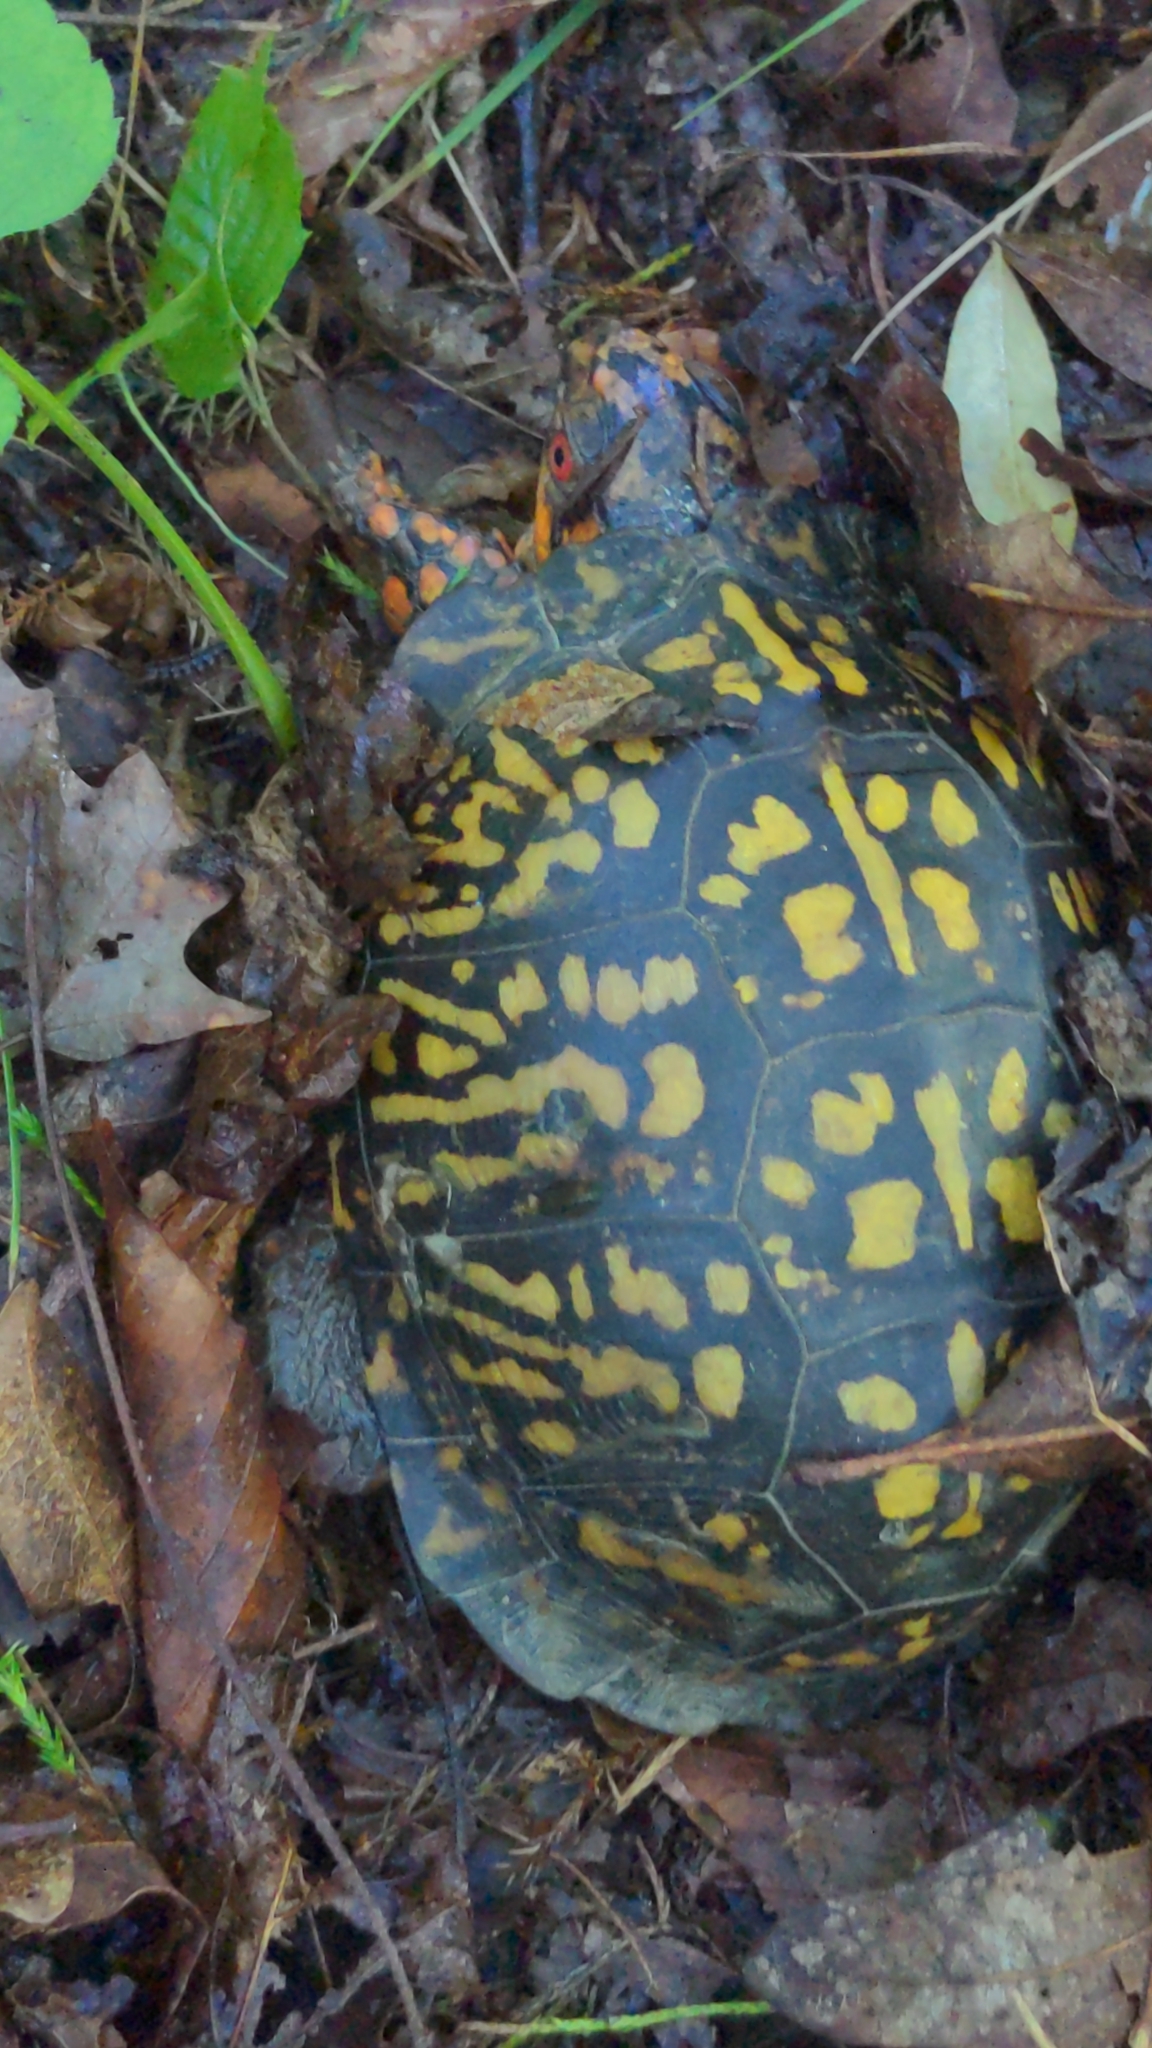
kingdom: Animalia
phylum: Chordata
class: Testudines
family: Emydidae
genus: Terrapene
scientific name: Terrapene carolina
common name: Common box turtle
